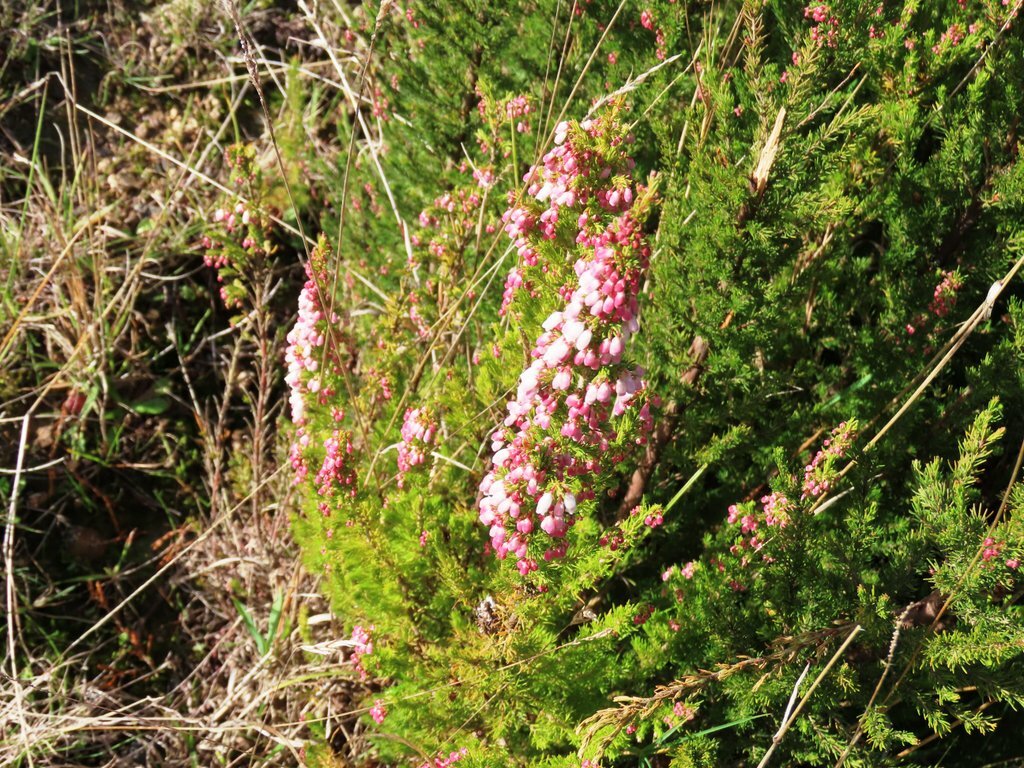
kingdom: Plantae
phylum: Tracheophyta
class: Magnoliopsida
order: Ericales
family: Ericaceae
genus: Erica
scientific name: Erica lusitanica
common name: Spanish heath
